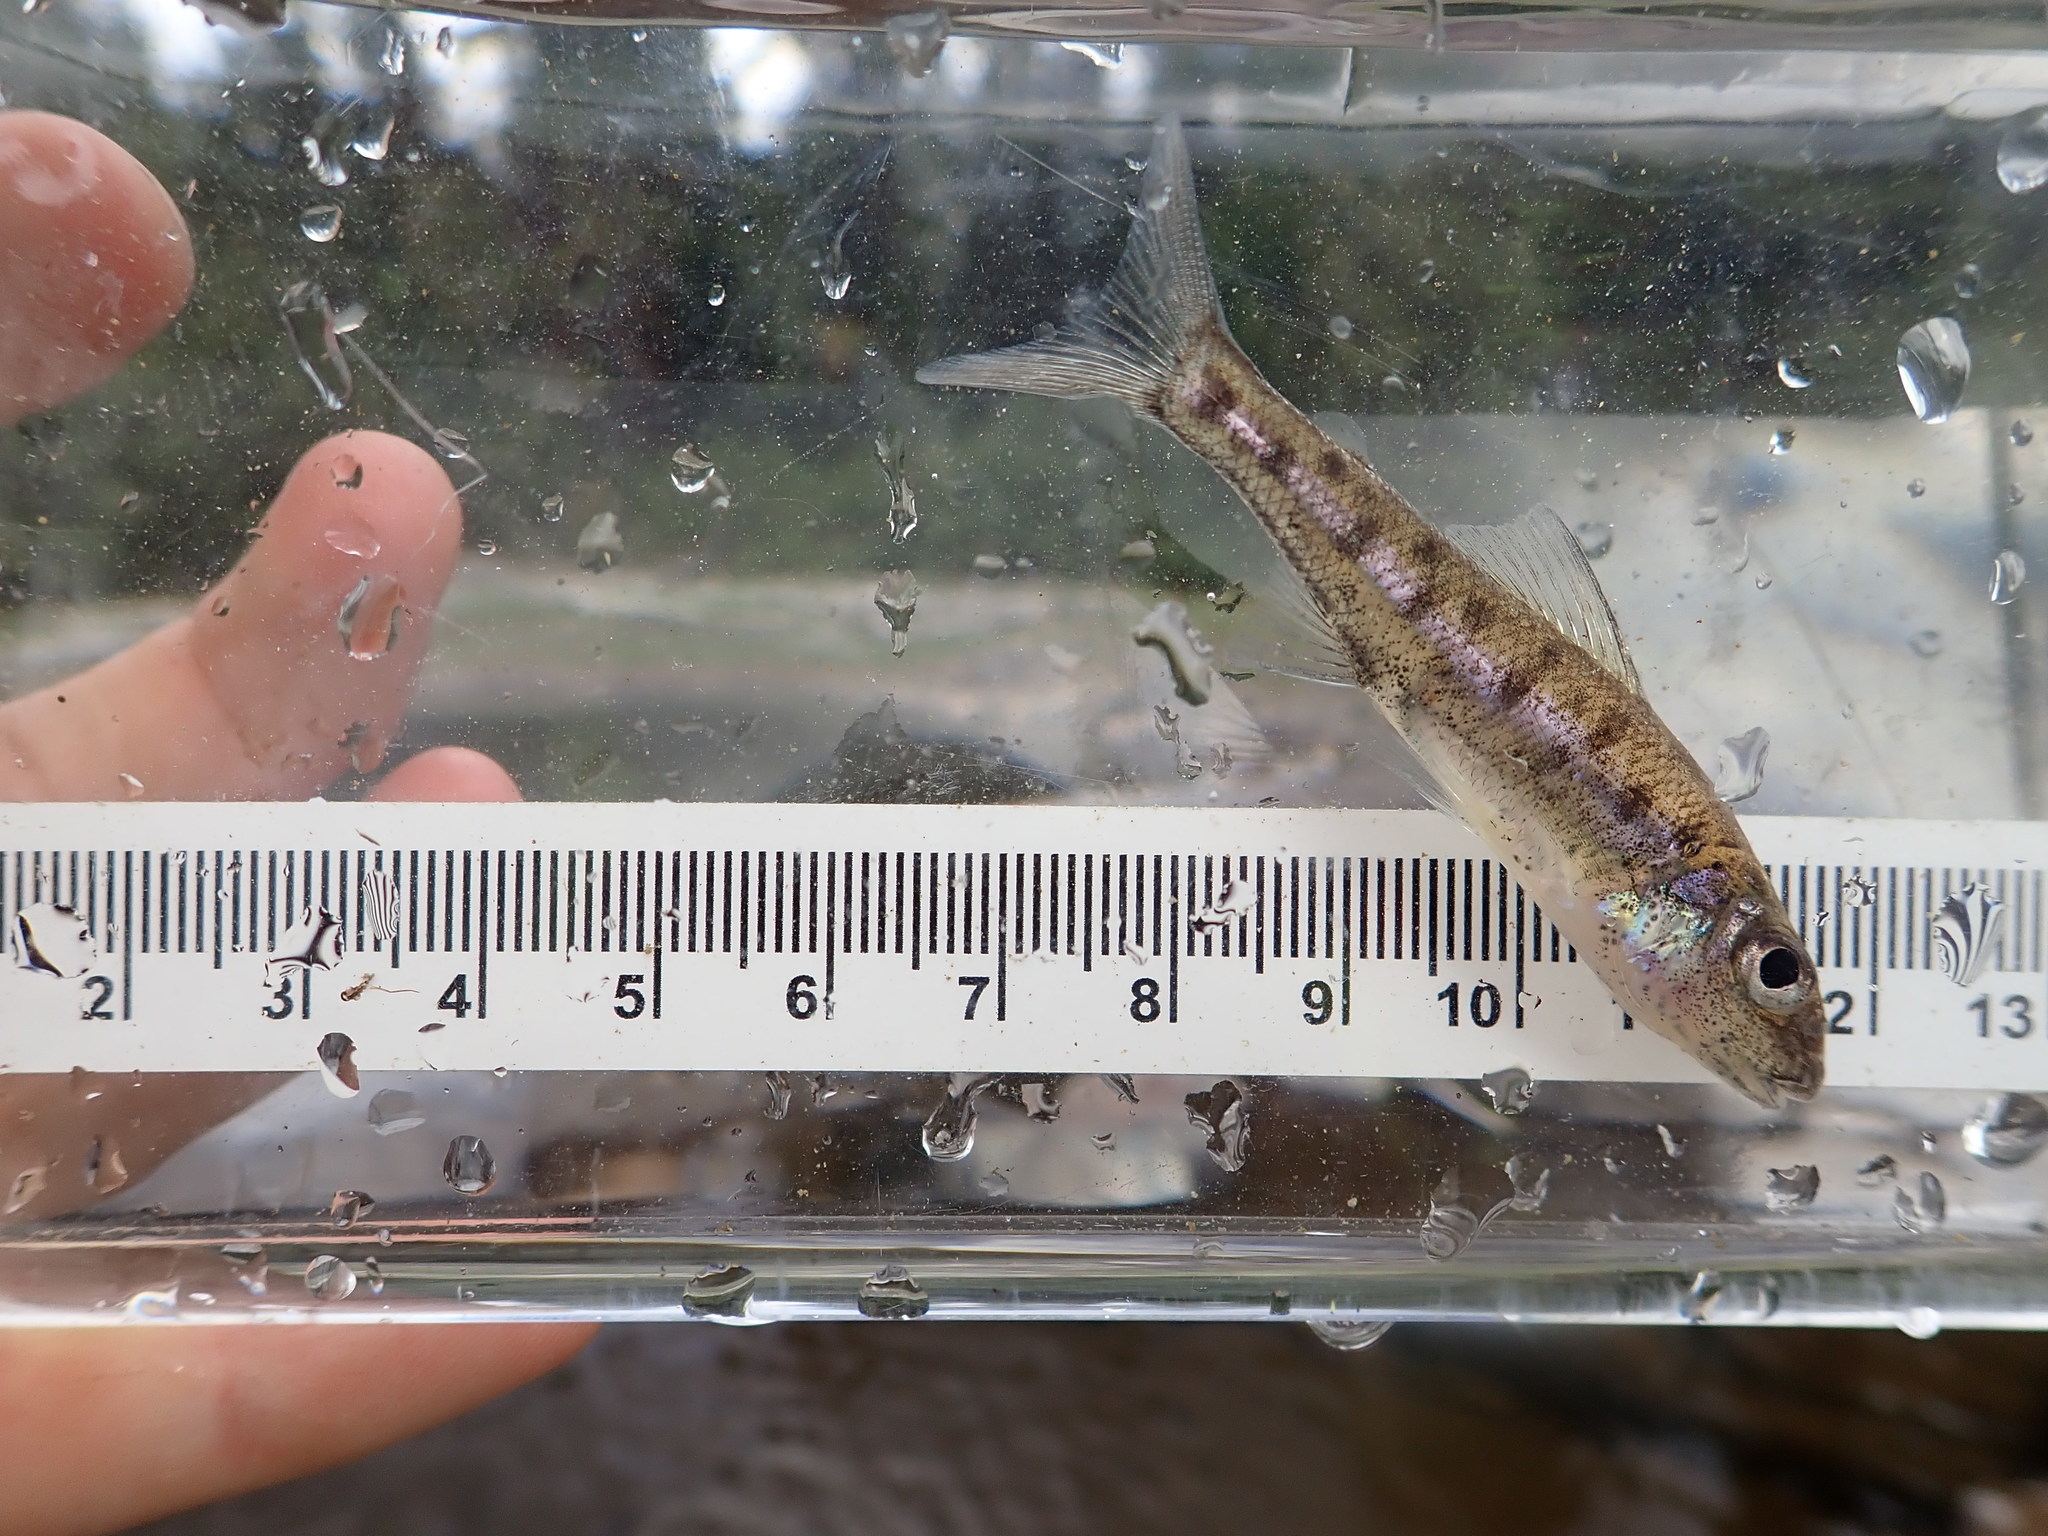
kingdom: Animalia
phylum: Chordata
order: Percopsiformes
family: Percopsidae
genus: Percopsis
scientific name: Percopsis omiscomaycus
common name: Trout-perch
